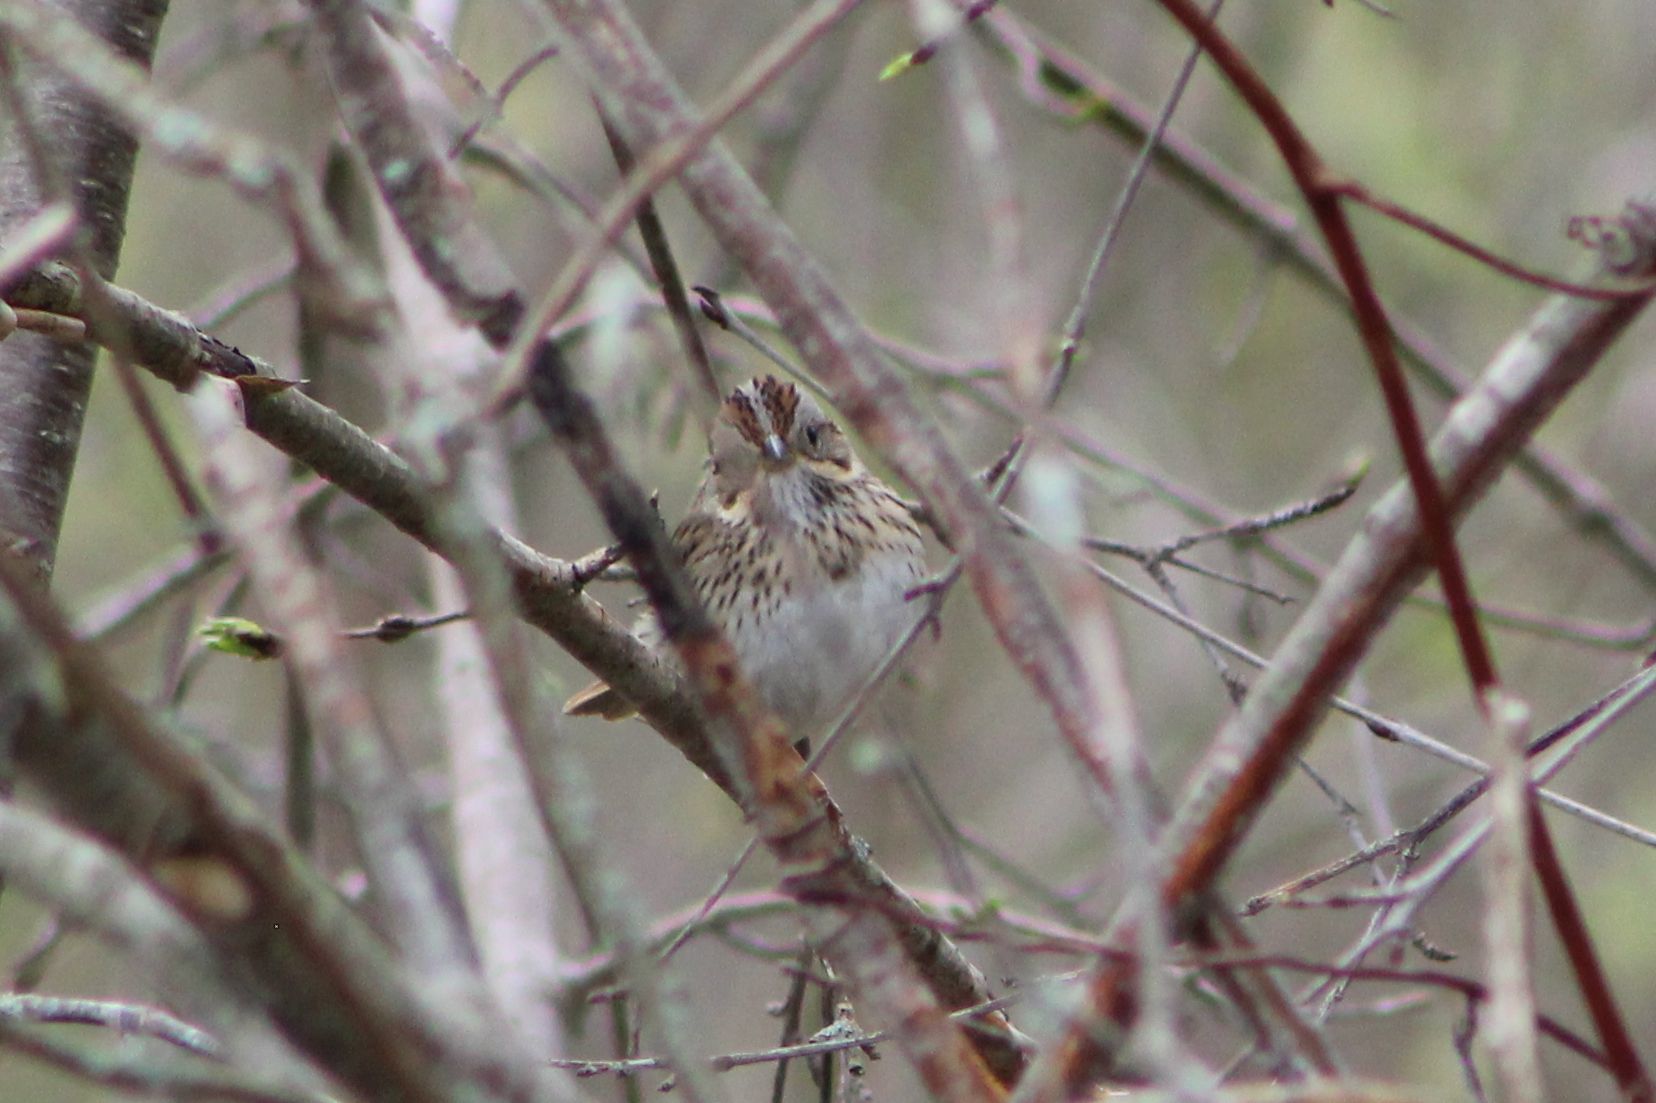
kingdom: Animalia
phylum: Chordata
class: Aves
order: Passeriformes
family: Passerellidae
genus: Melospiza
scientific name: Melospiza lincolnii
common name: Lincoln's sparrow
